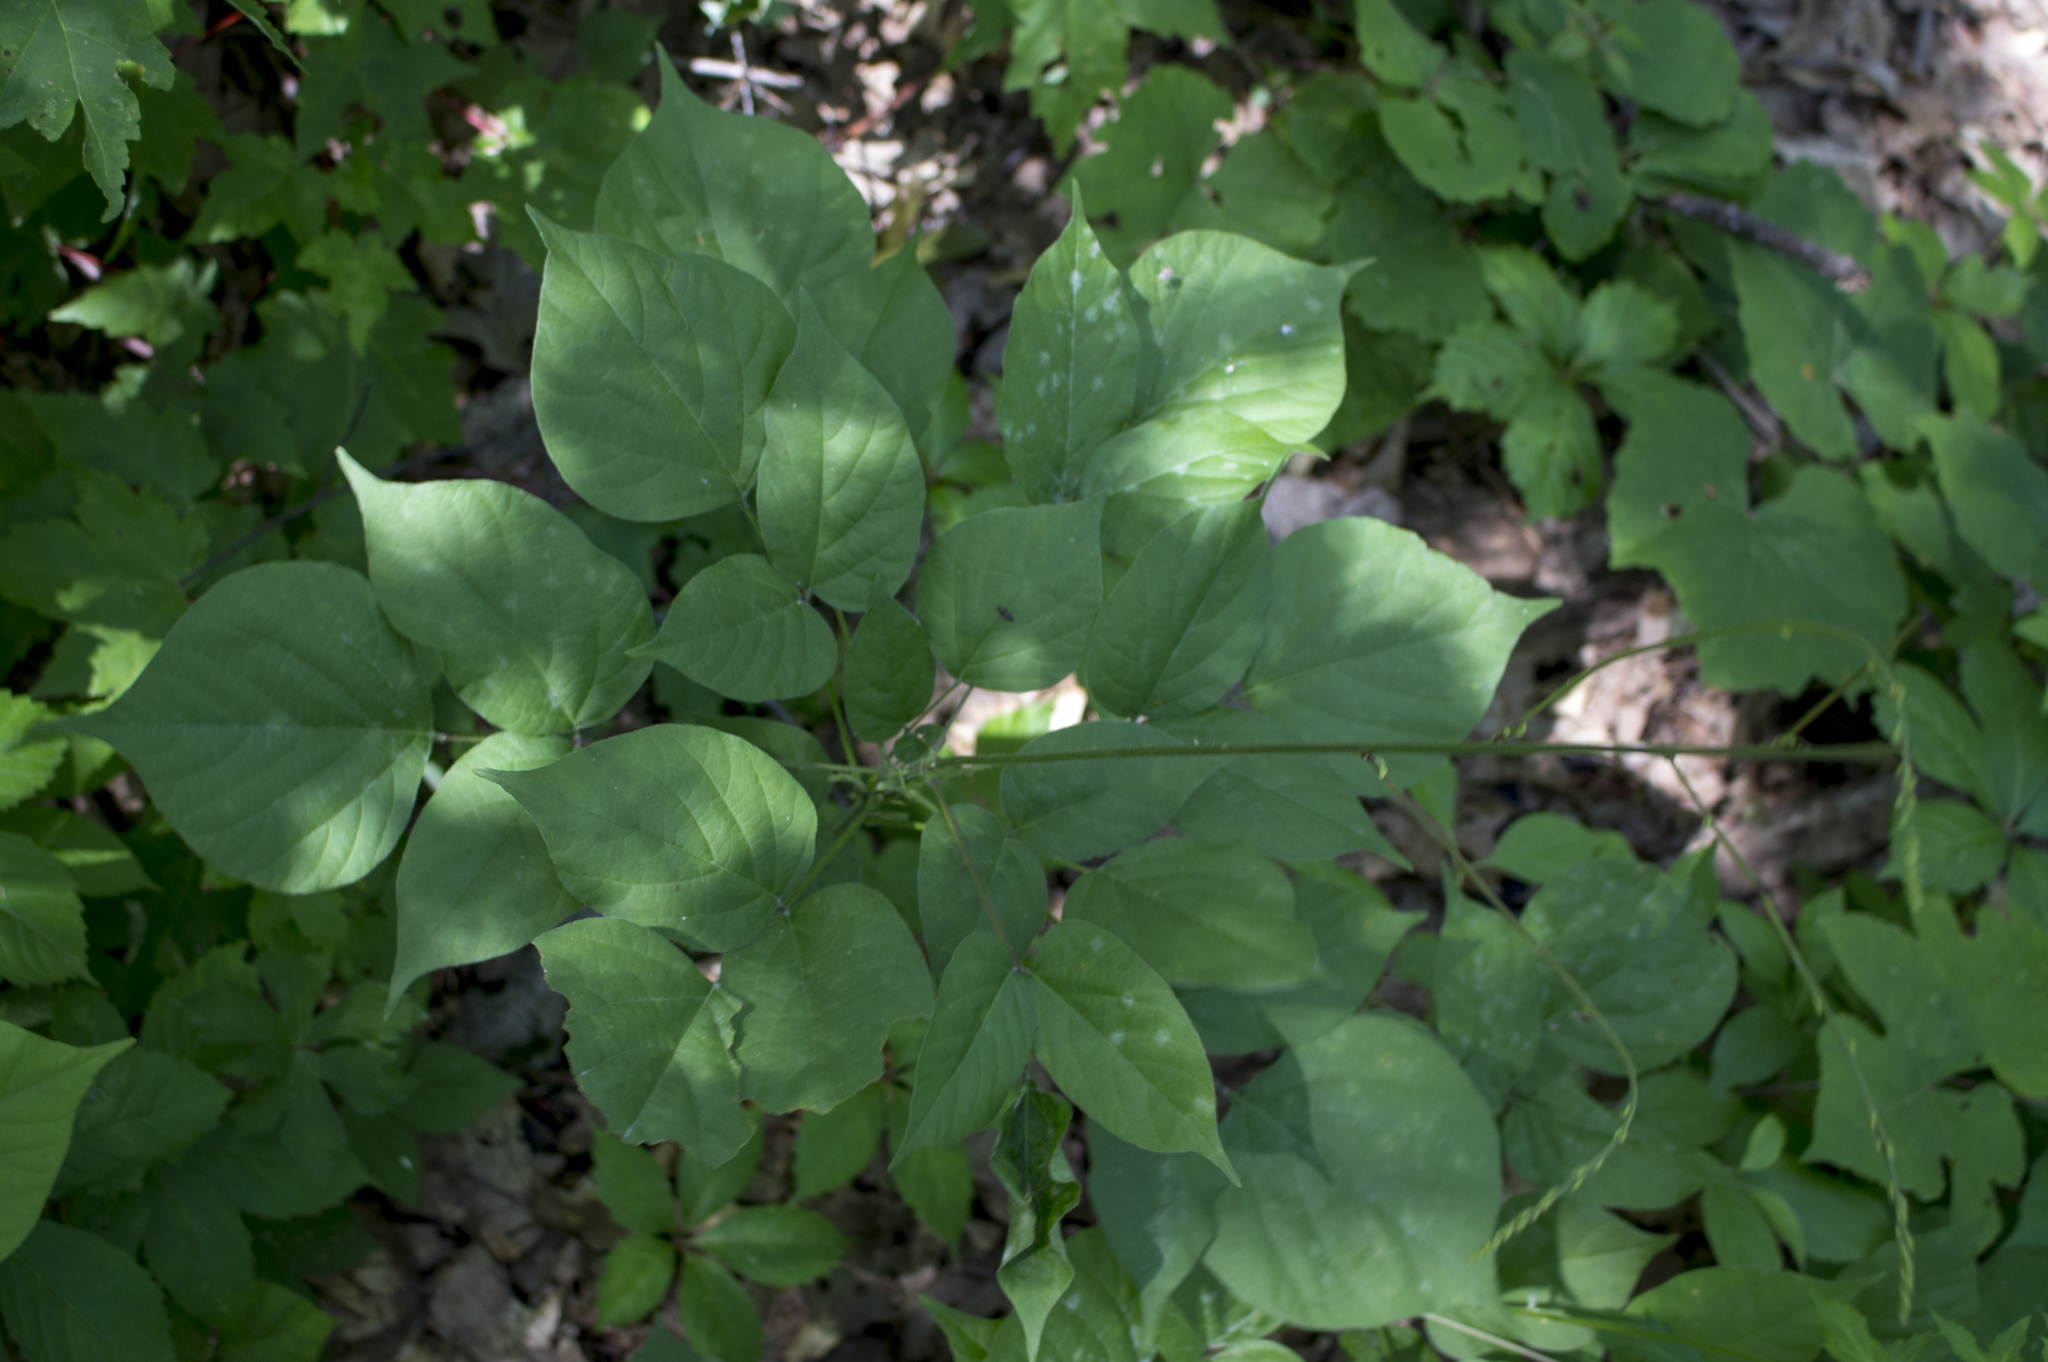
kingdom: Plantae
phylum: Tracheophyta
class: Magnoliopsida
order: Fabales
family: Fabaceae
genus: Hylodesmum
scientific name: Hylodesmum glutinosum
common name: Clustered-leaved tick-trefoil
